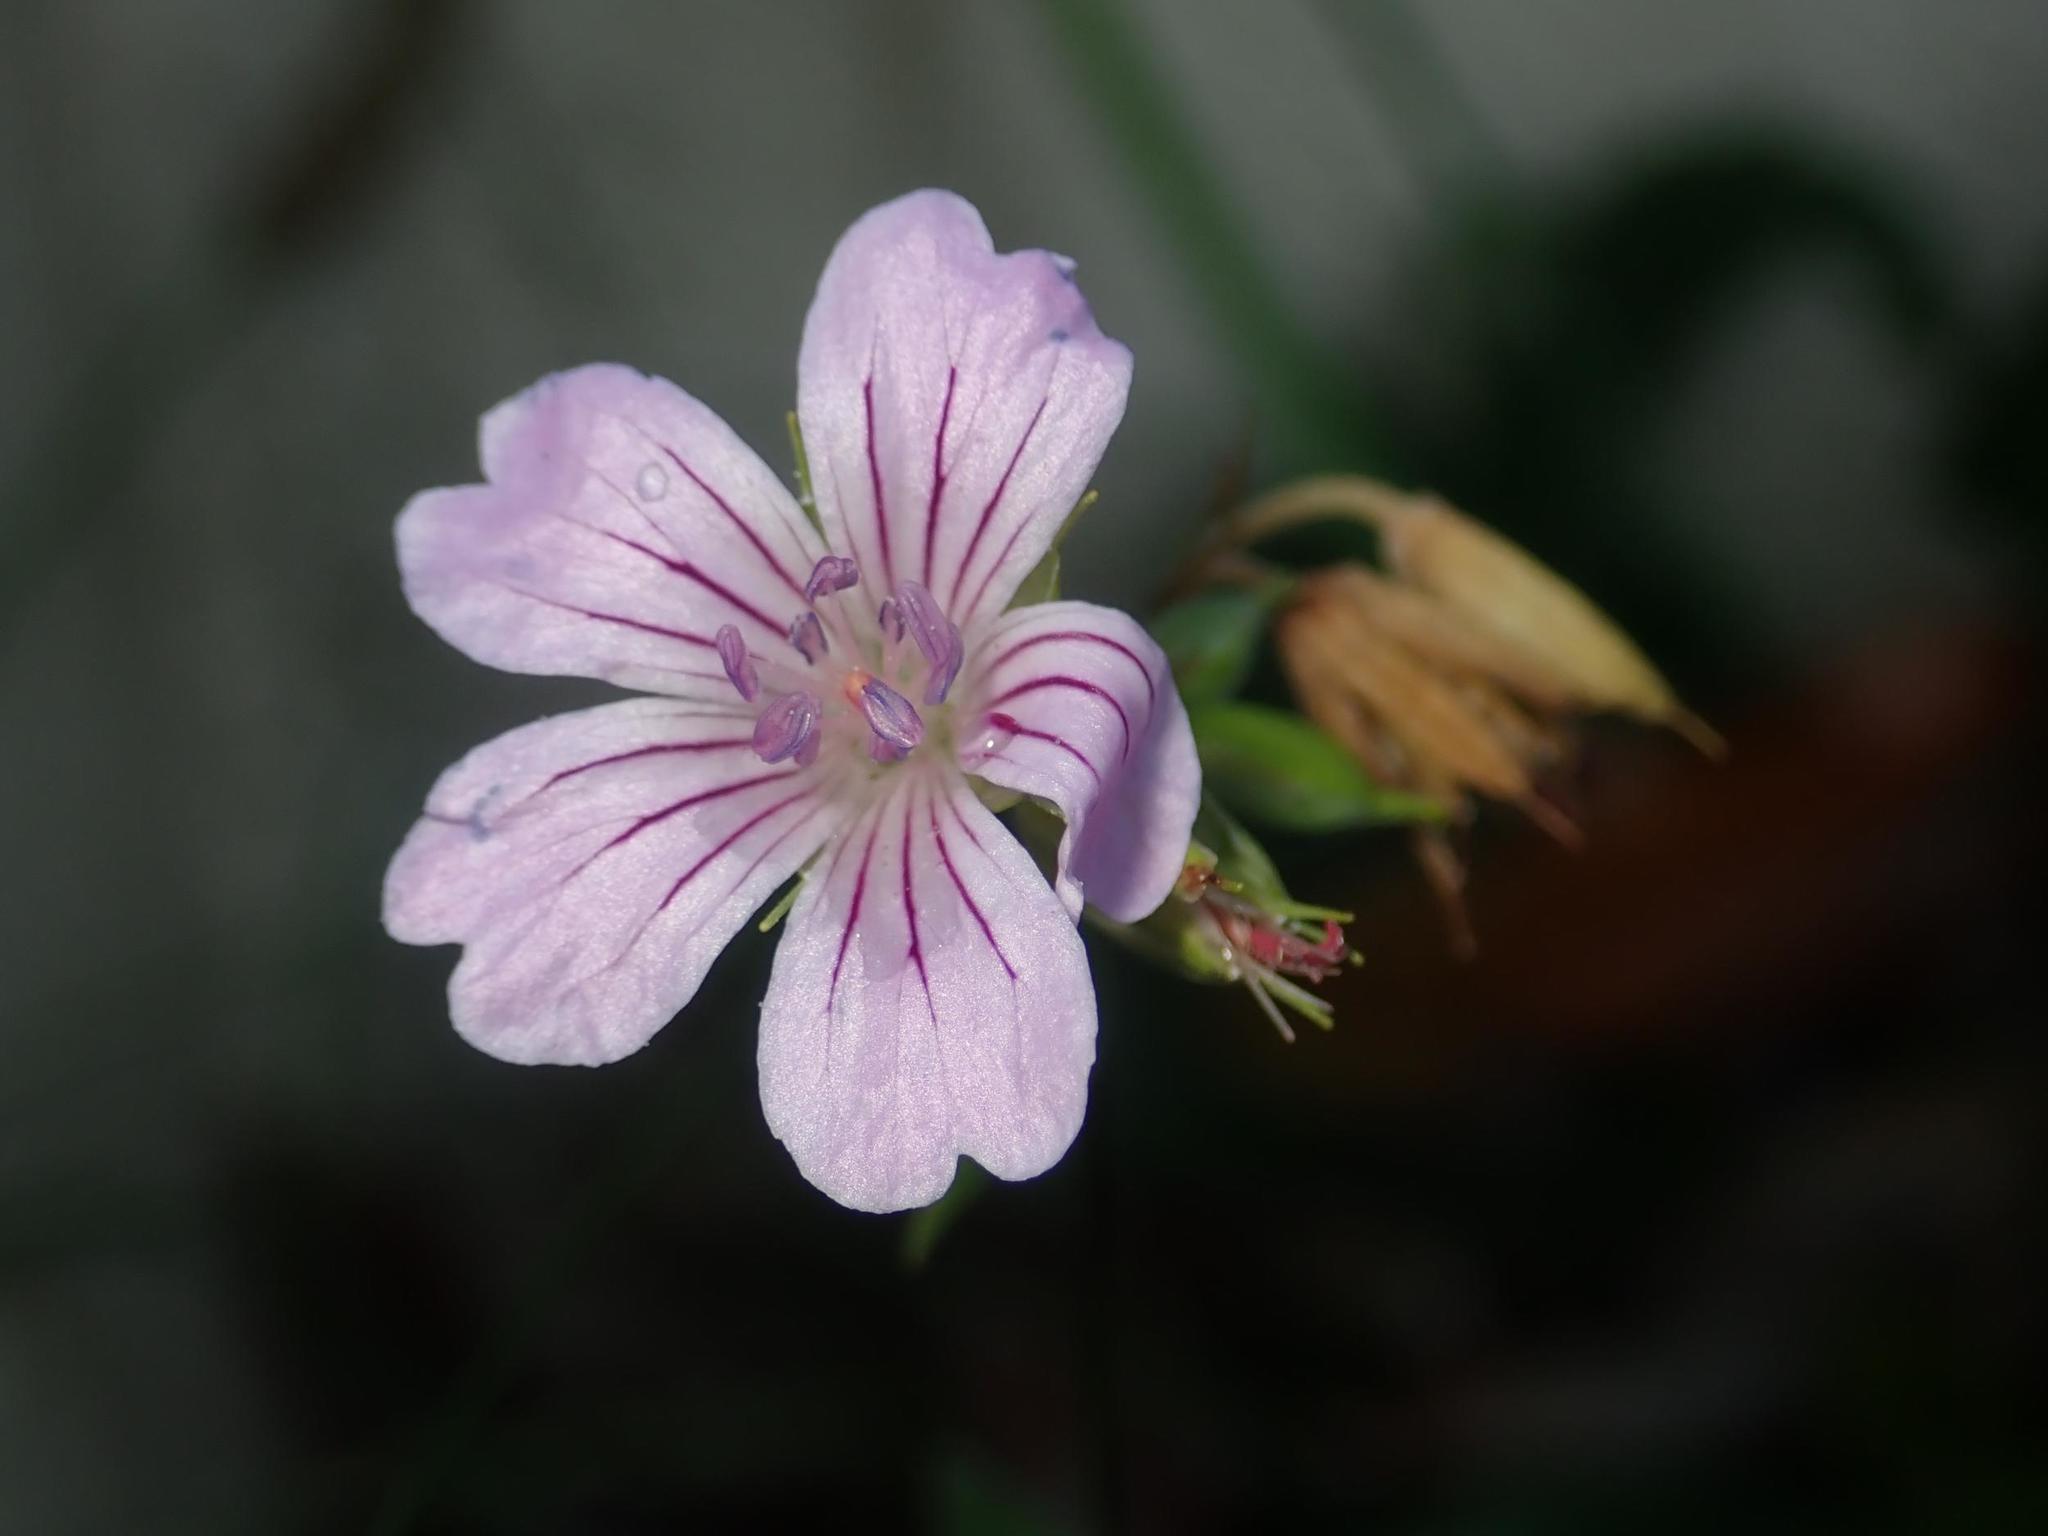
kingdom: Plantae
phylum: Tracheophyta
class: Magnoliopsida
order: Geraniales
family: Geraniaceae
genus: Geranium
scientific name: Geranium nodosum
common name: Knotted crane's-bill
